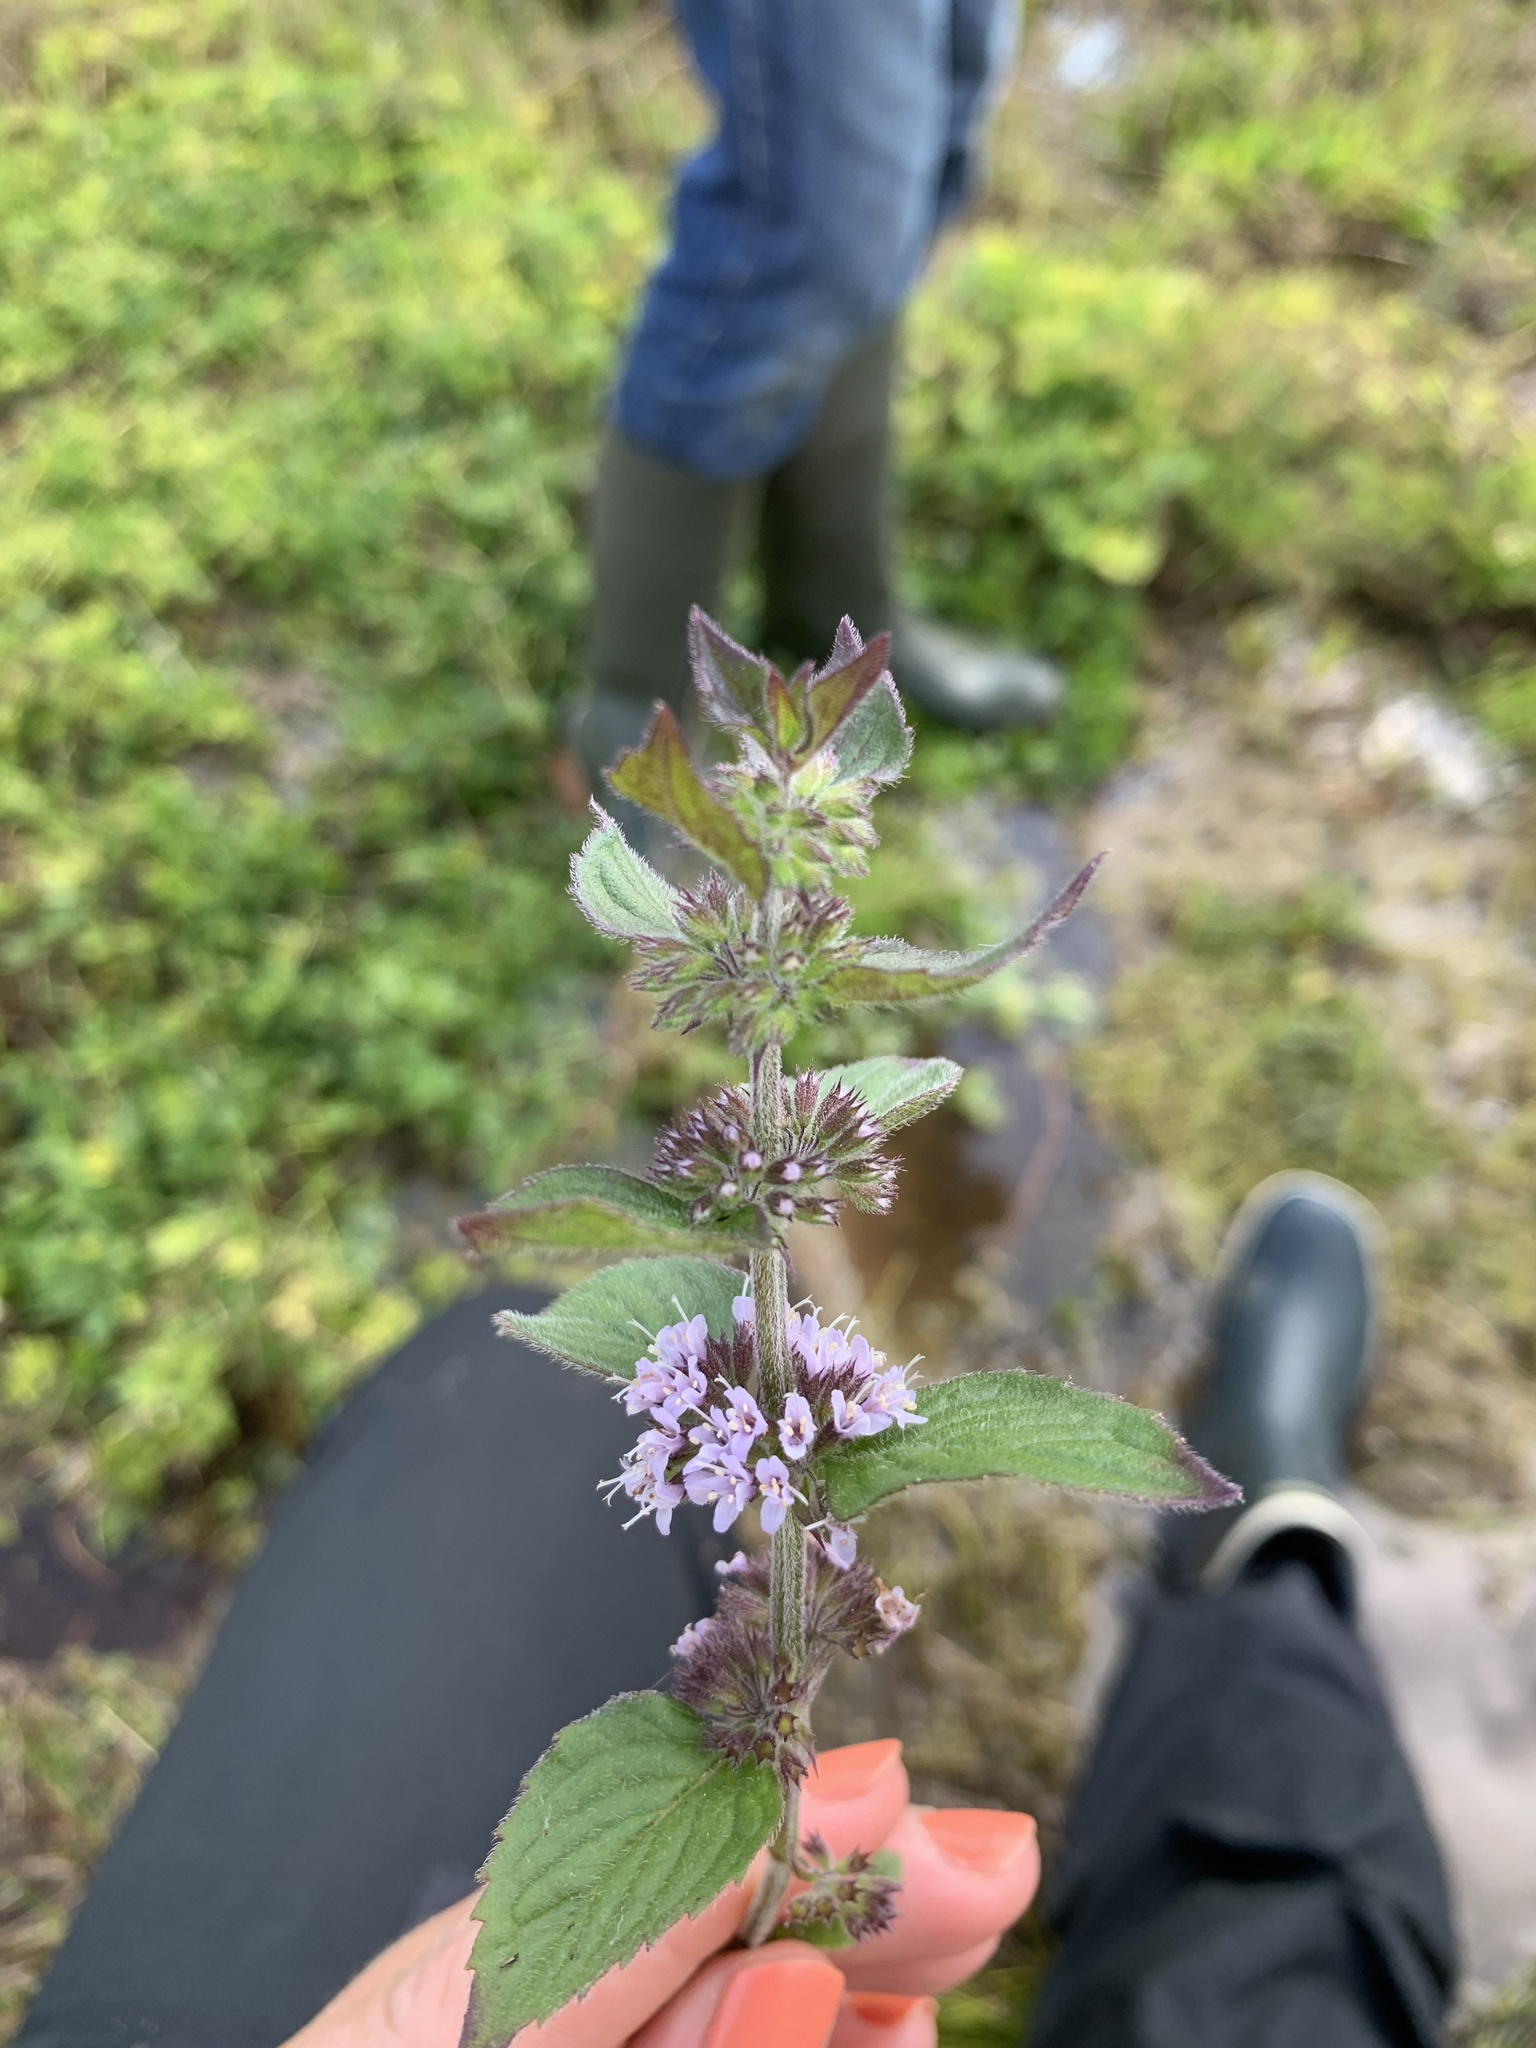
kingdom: Plantae
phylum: Tracheophyta
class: Magnoliopsida
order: Lamiales
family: Lamiaceae
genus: Mentha
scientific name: Mentha verticillata
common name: Mint
